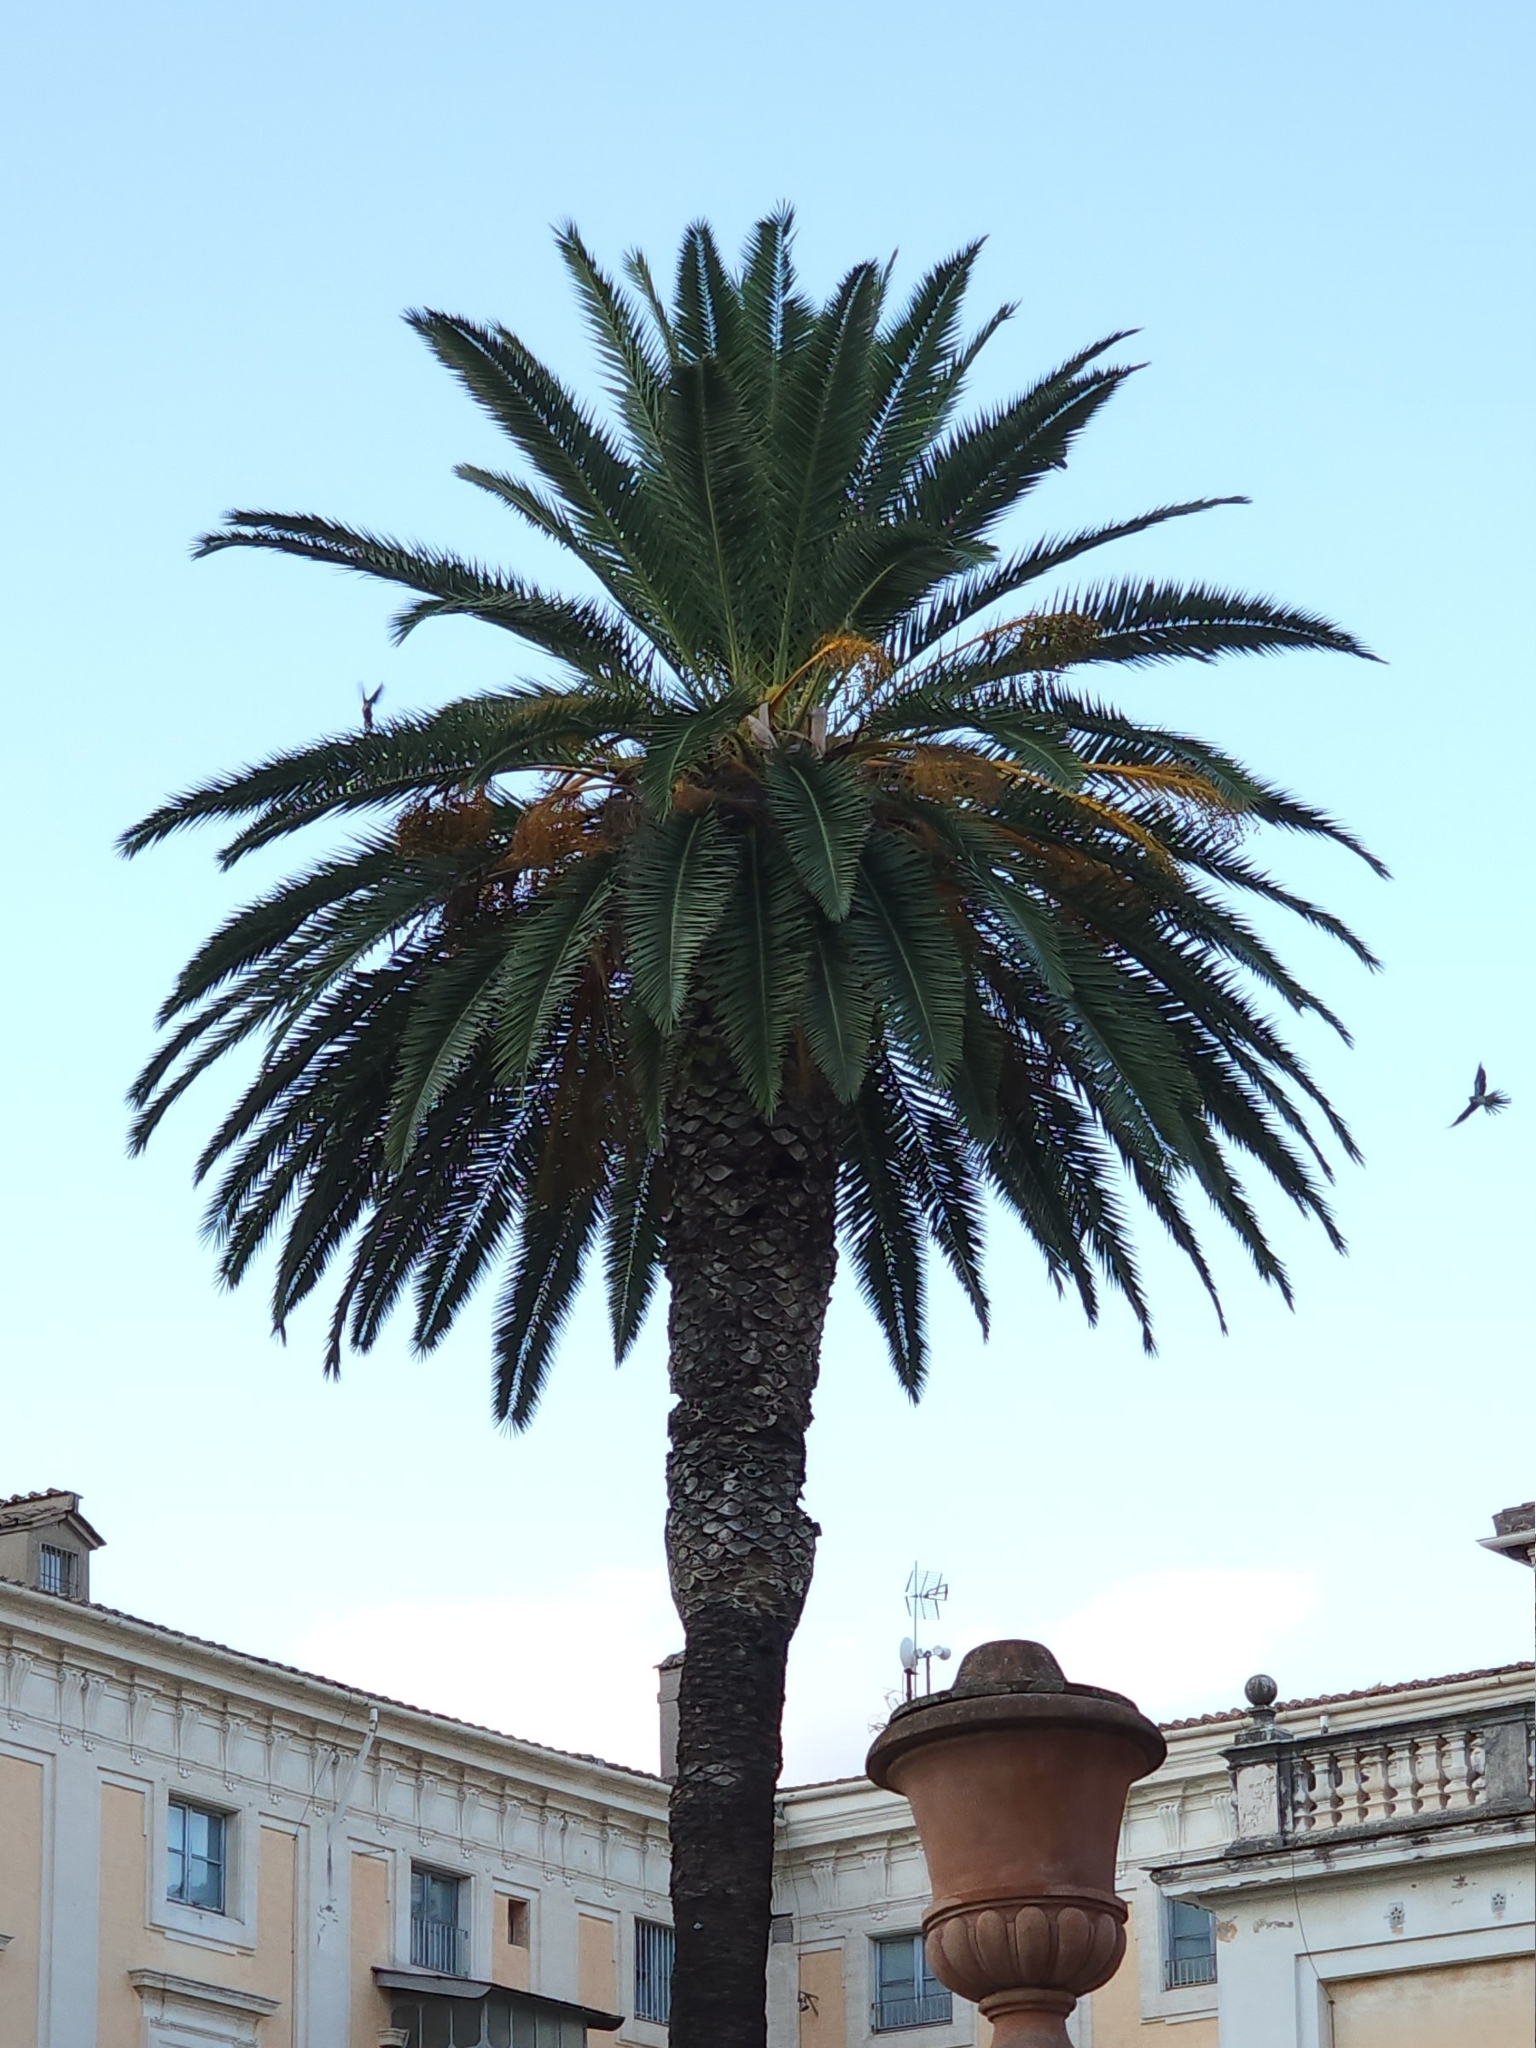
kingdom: Animalia
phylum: Chordata
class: Aves
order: Psittaciformes
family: Psittacidae
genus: Myiopsitta
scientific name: Myiopsitta monachus
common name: Monk parakeet
